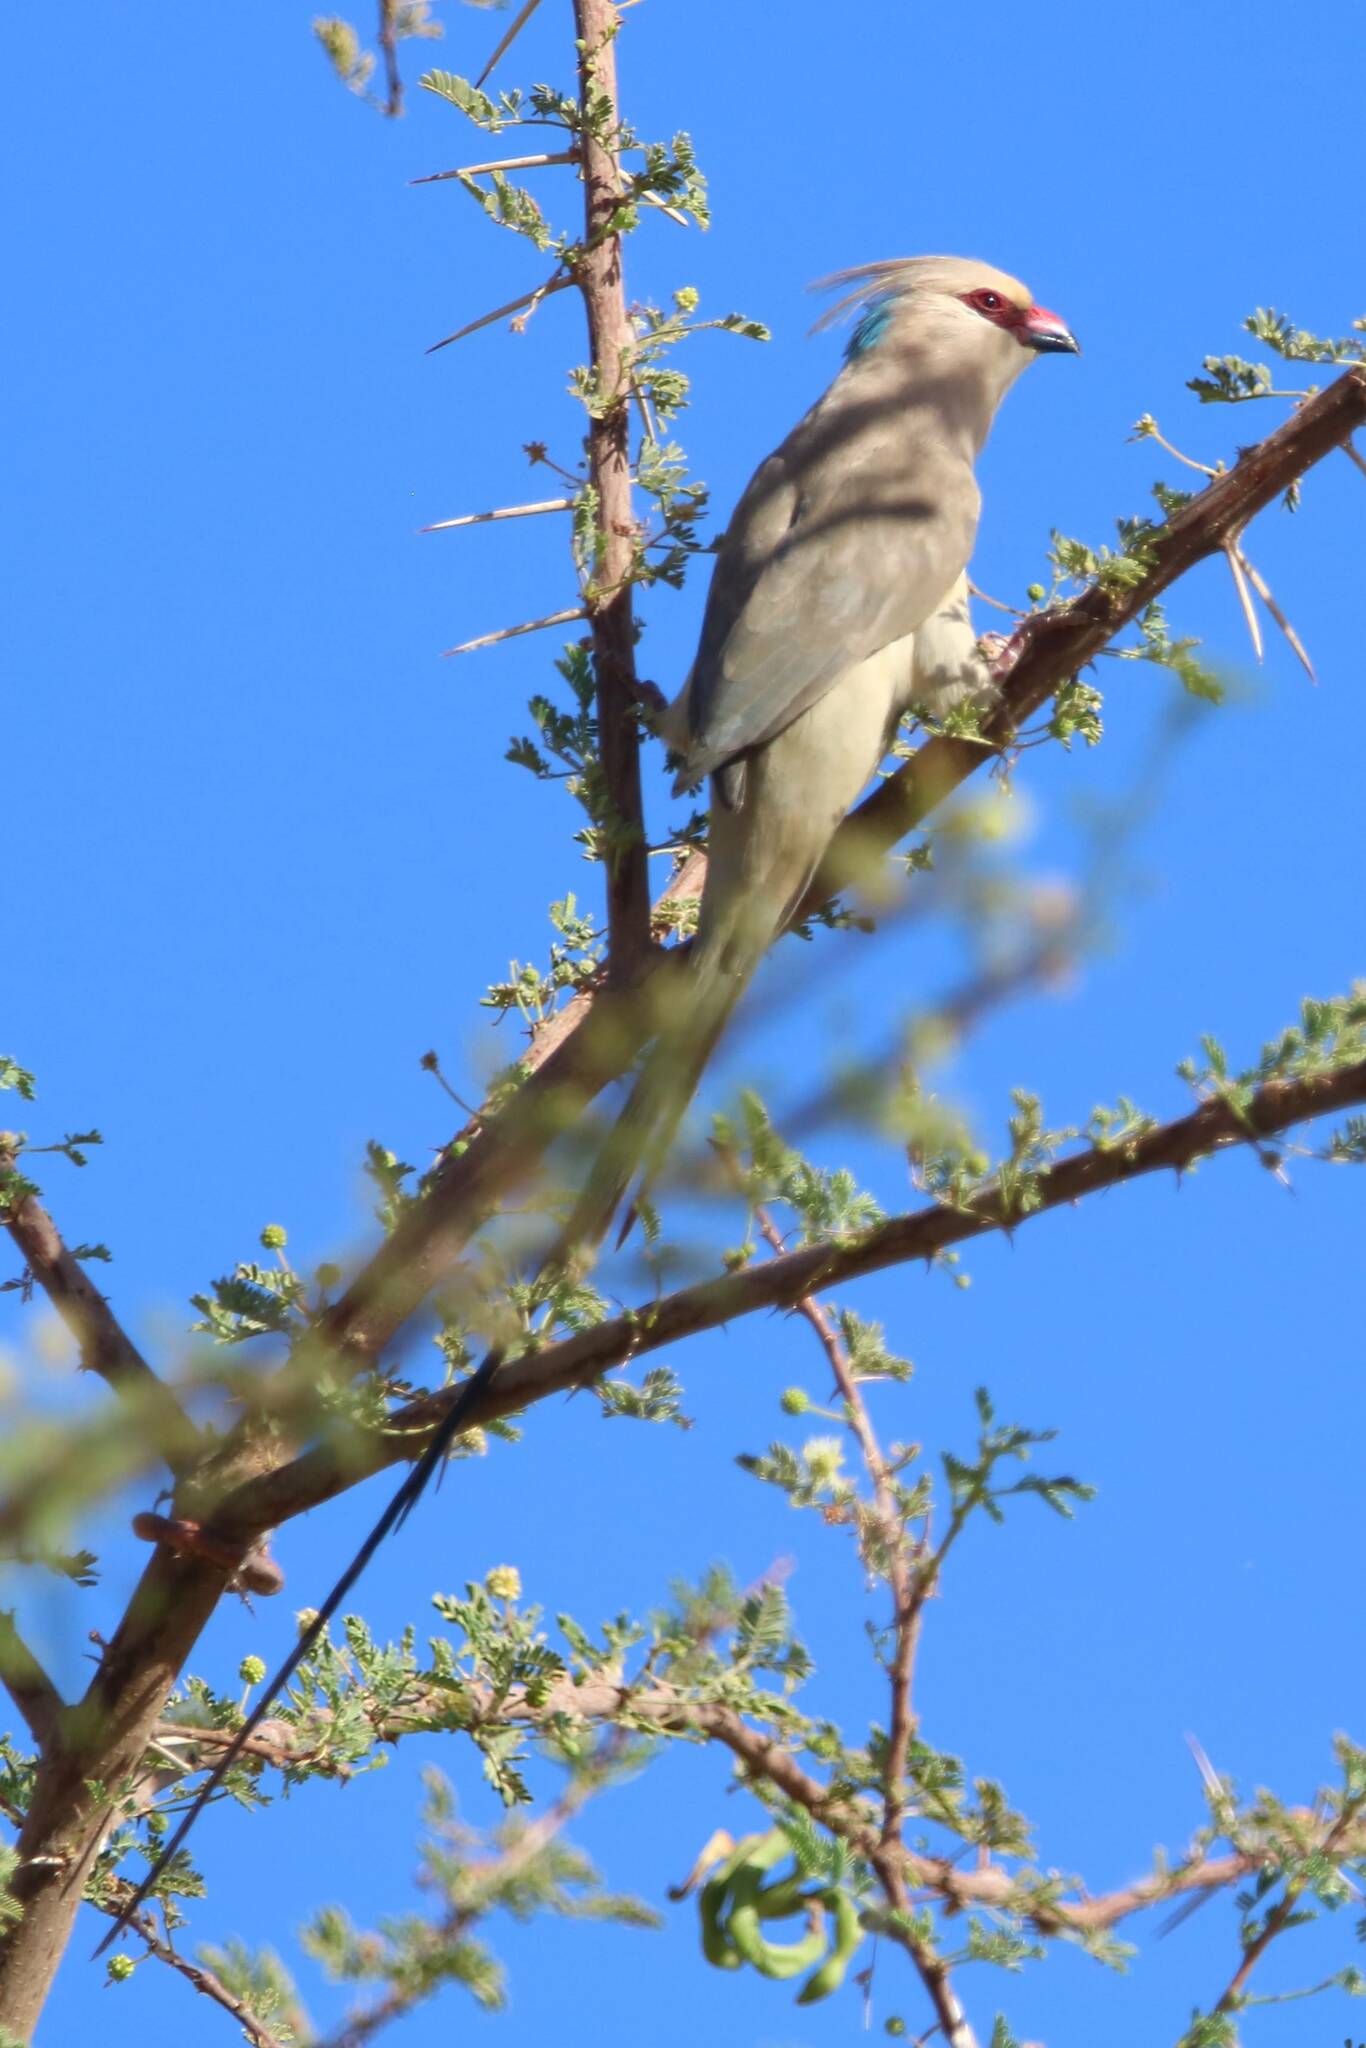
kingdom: Animalia
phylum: Chordata
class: Aves
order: Coliiformes
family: Coliidae
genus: Urocolius
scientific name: Urocolius macrourus
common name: Blue-naped mousebird
